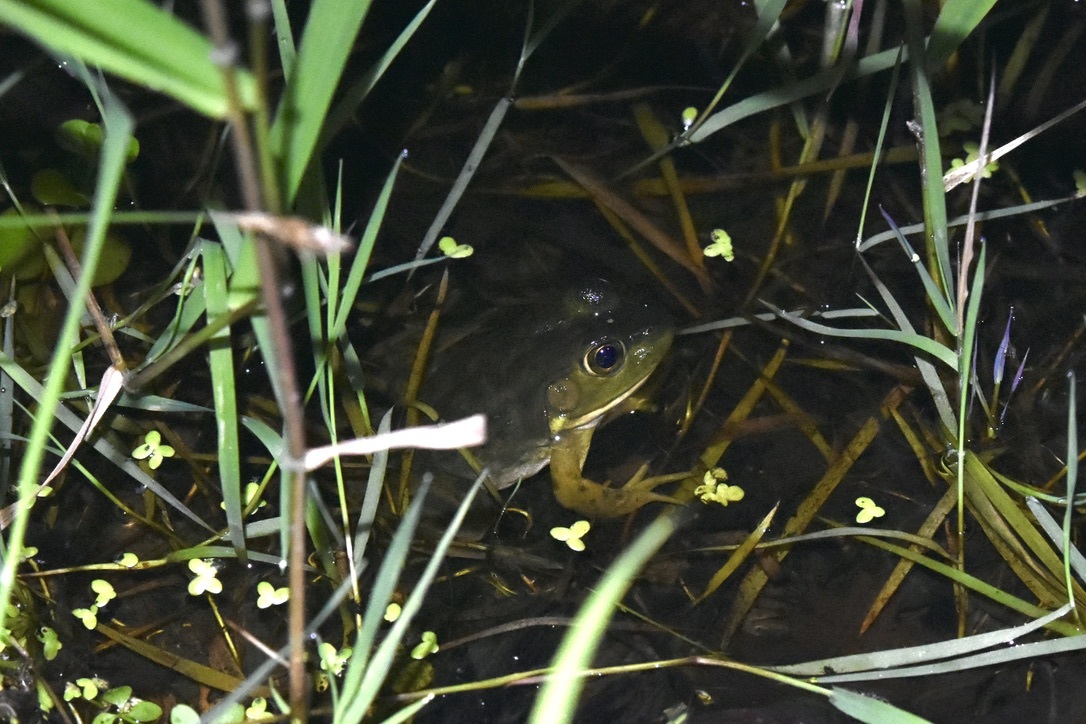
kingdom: Animalia
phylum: Chordata
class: Amphibia
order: Anura
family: Ranidae
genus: Lithobates
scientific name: Lithobates catesbeianus
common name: American bullfrog
